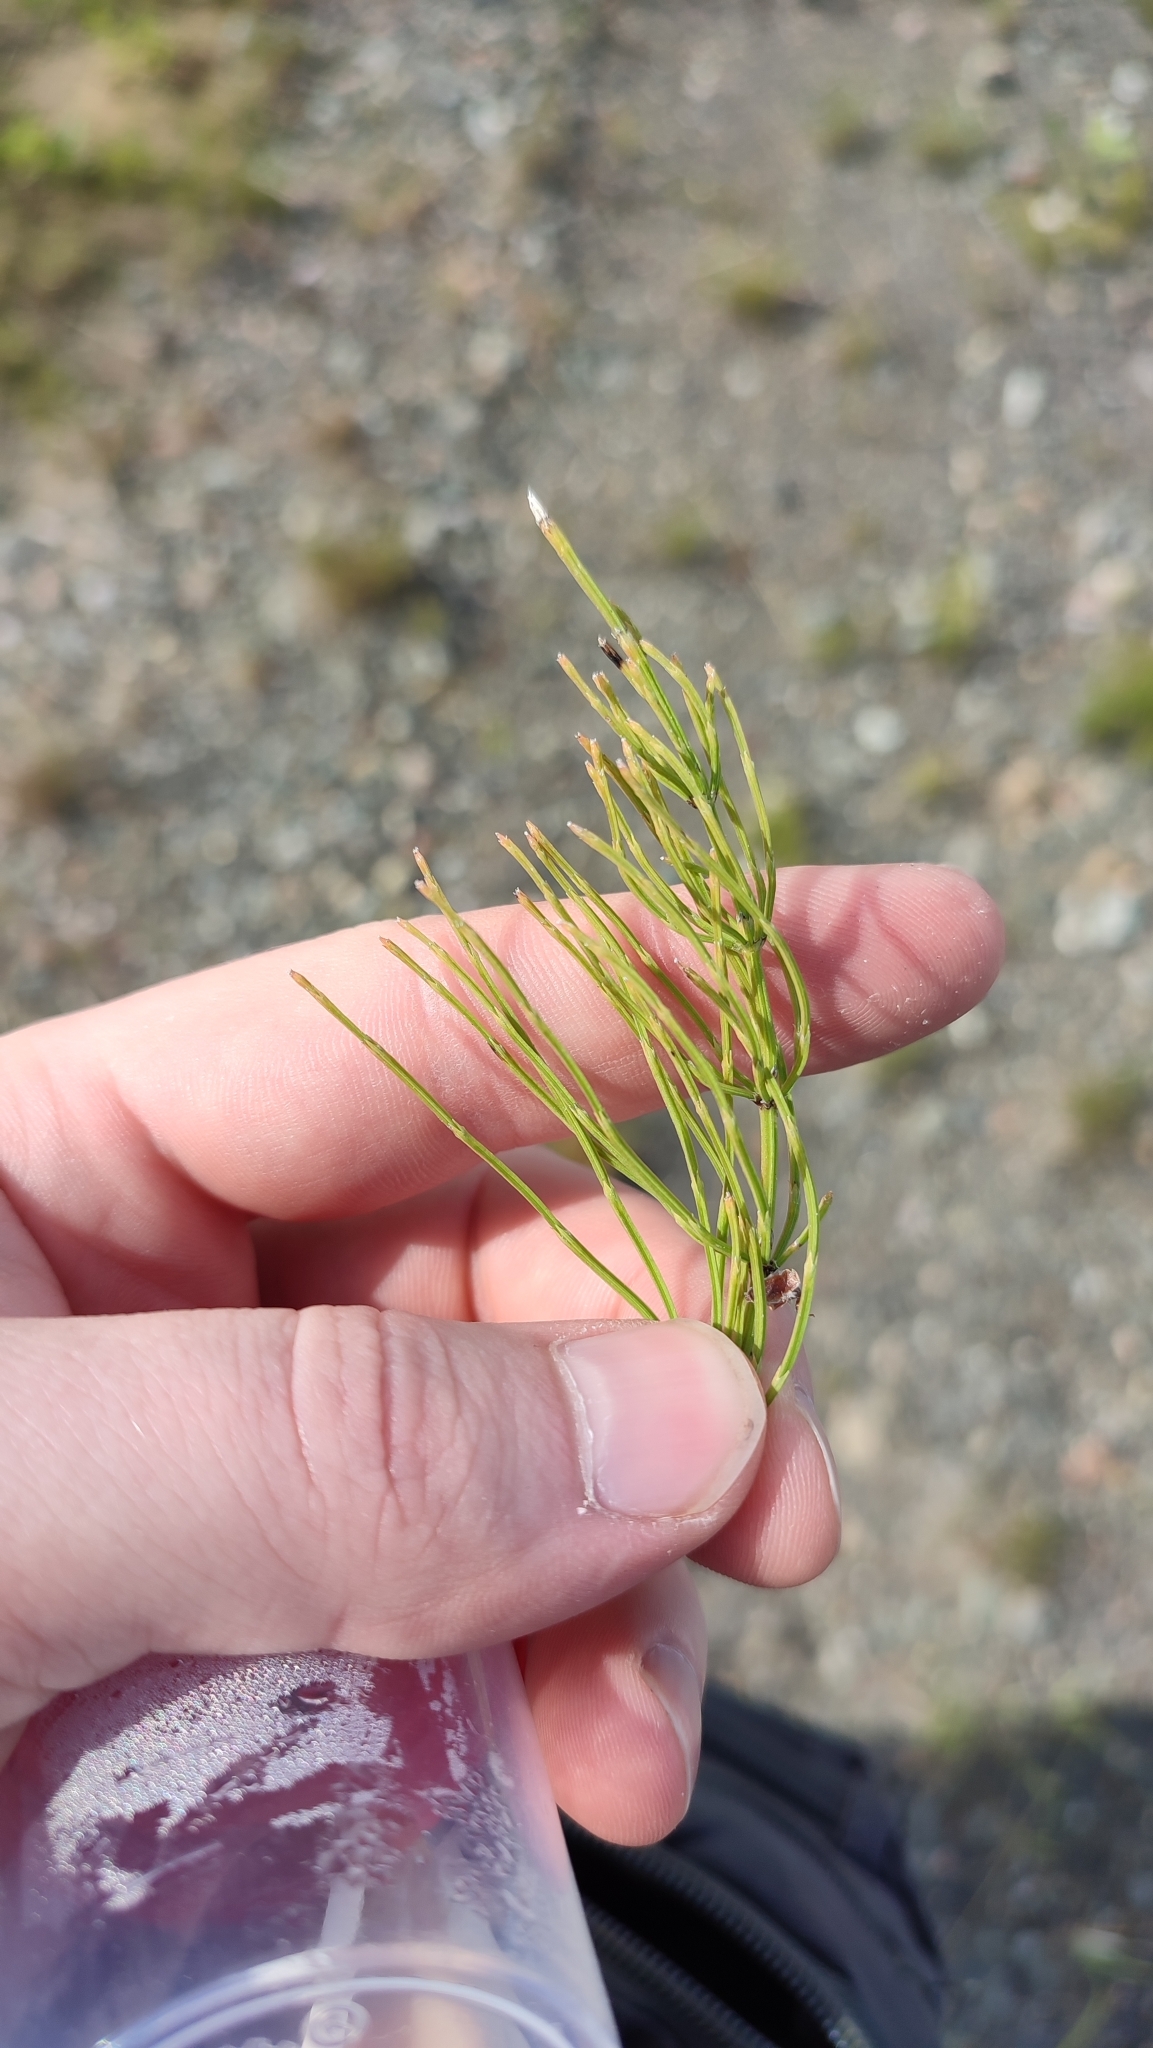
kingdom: Plantae
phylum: Tracheophyta
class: Polypodiopsida
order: Equisetales
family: Equisetaceae
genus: Equisetum
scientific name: Equisetum arvense
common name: Field horsetail
